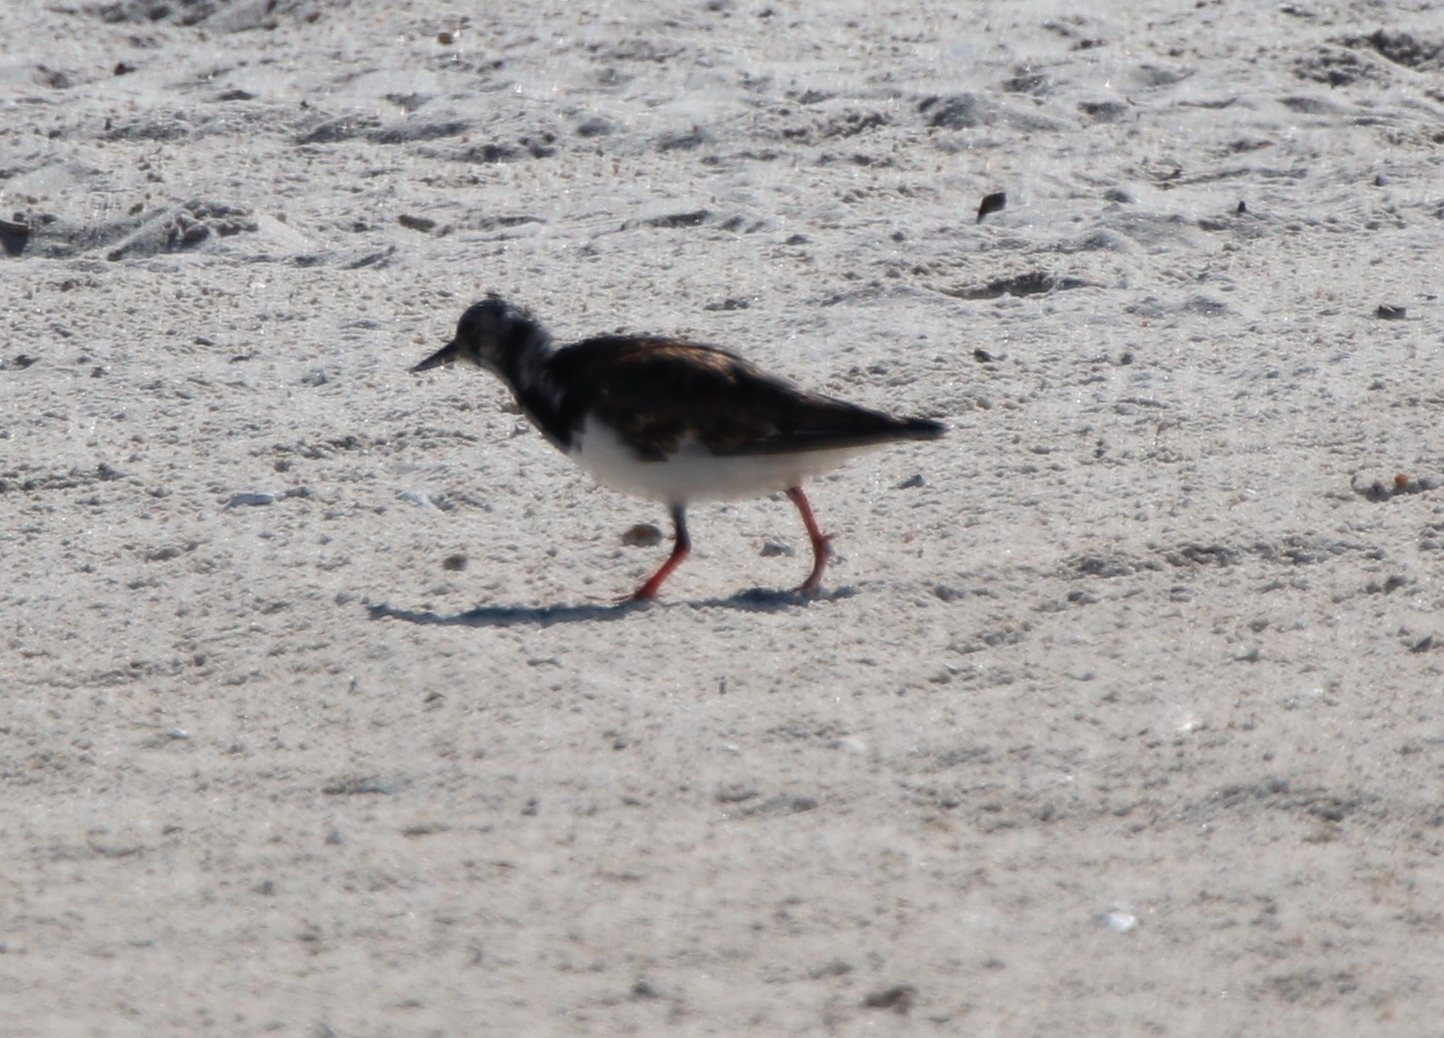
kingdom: Animalia
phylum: Chordata
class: Aves
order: Charadriiformes
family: Scolopacidae
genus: Arenaria
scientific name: Arenaria interpres
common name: Ruddy turnstone
